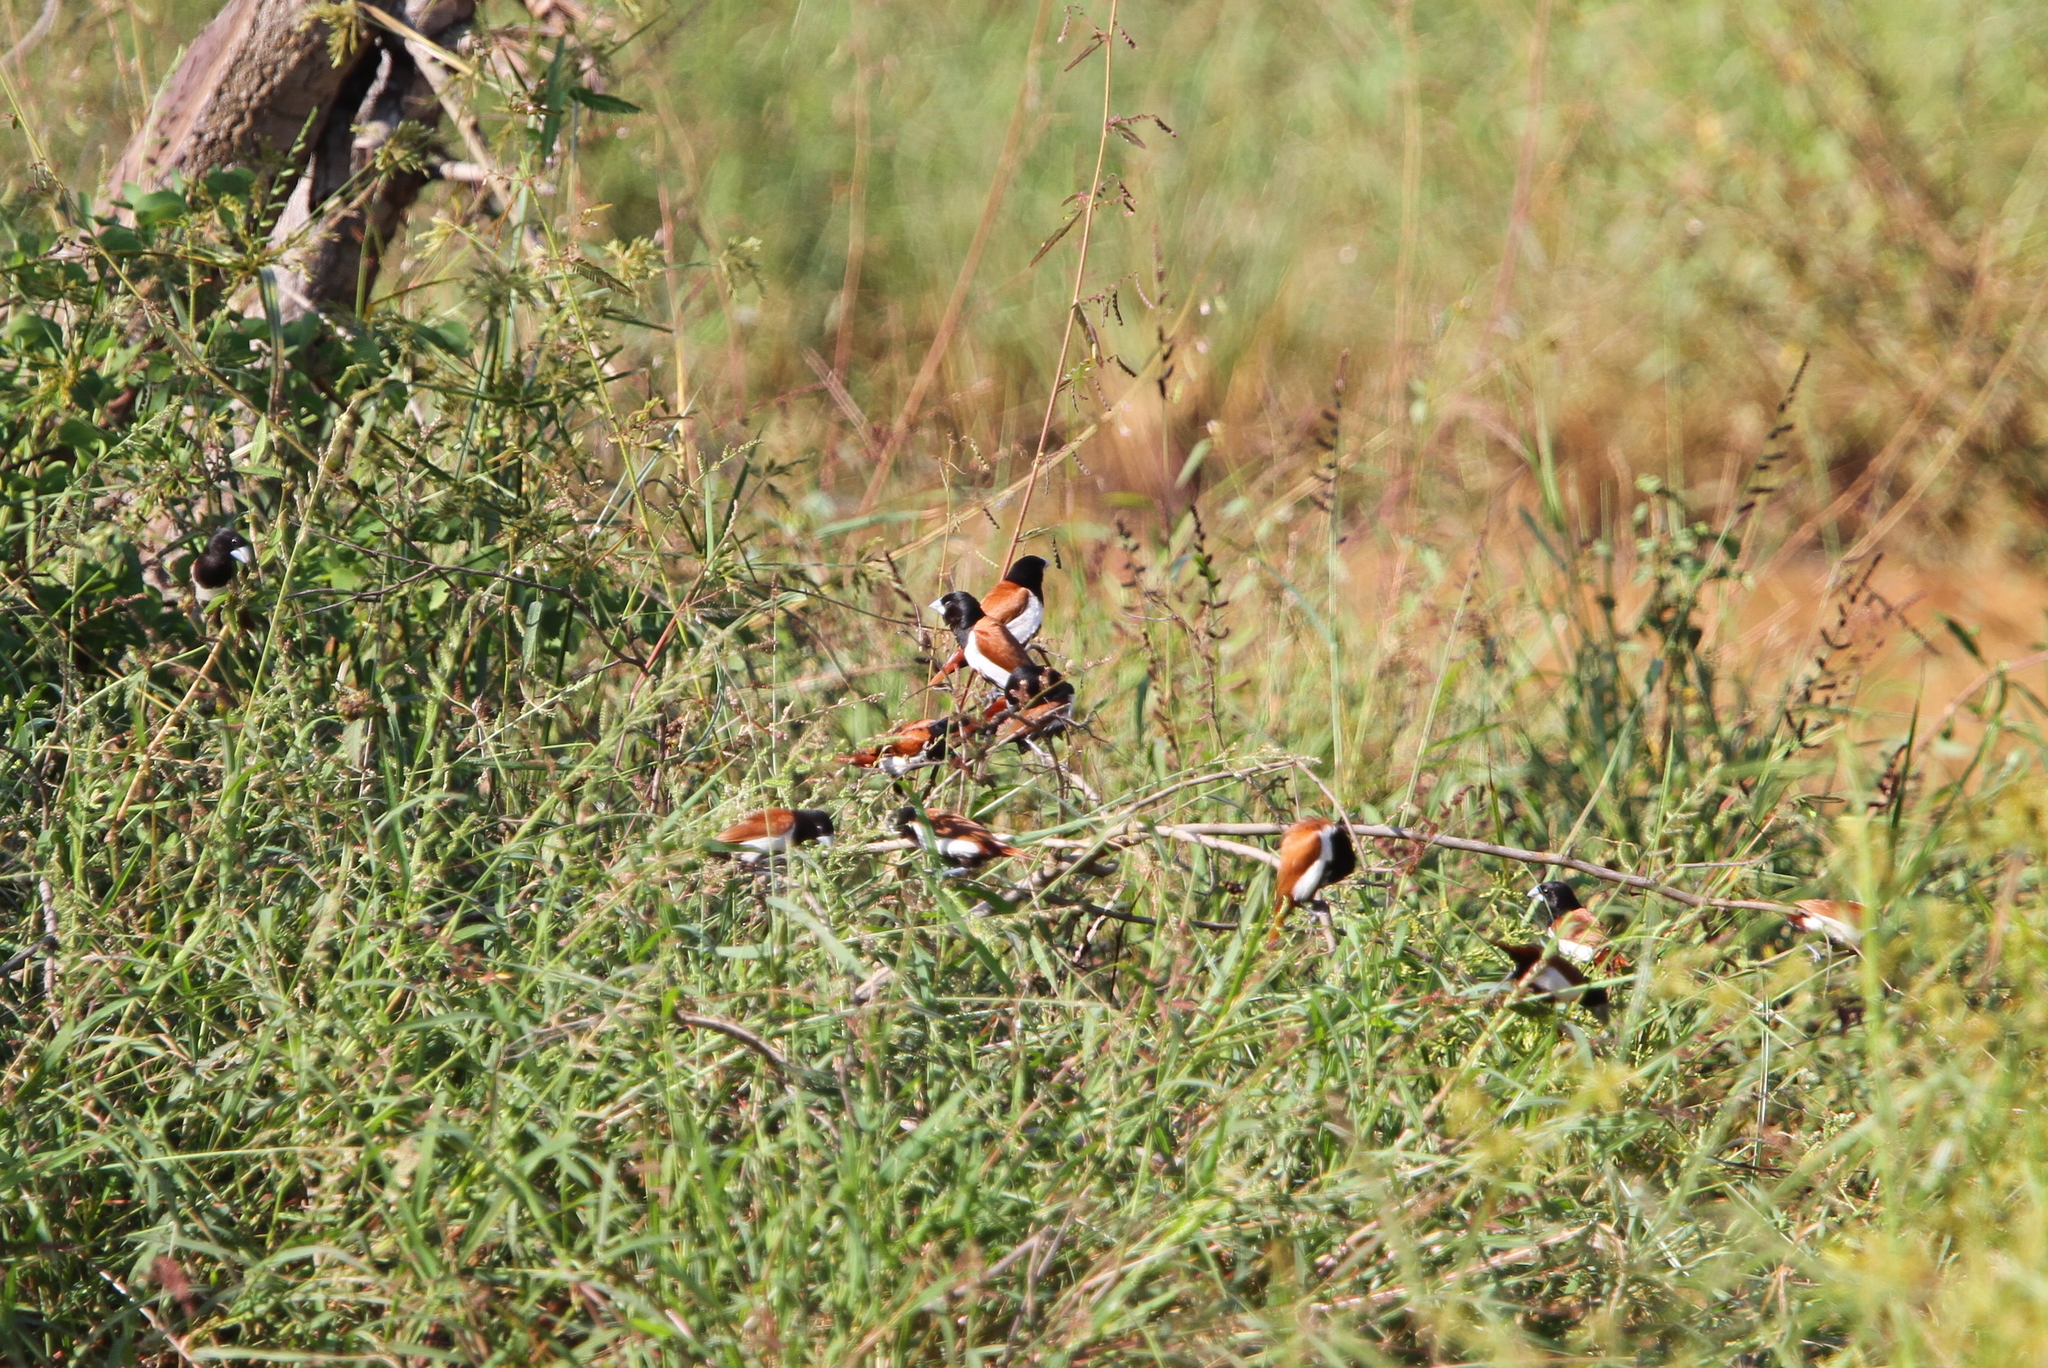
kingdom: Animalia
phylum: Chordata
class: Aves
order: Passeriformes
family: Estrildidae
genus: Lonchura
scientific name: Lonchura malacca
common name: Tricolored munia
